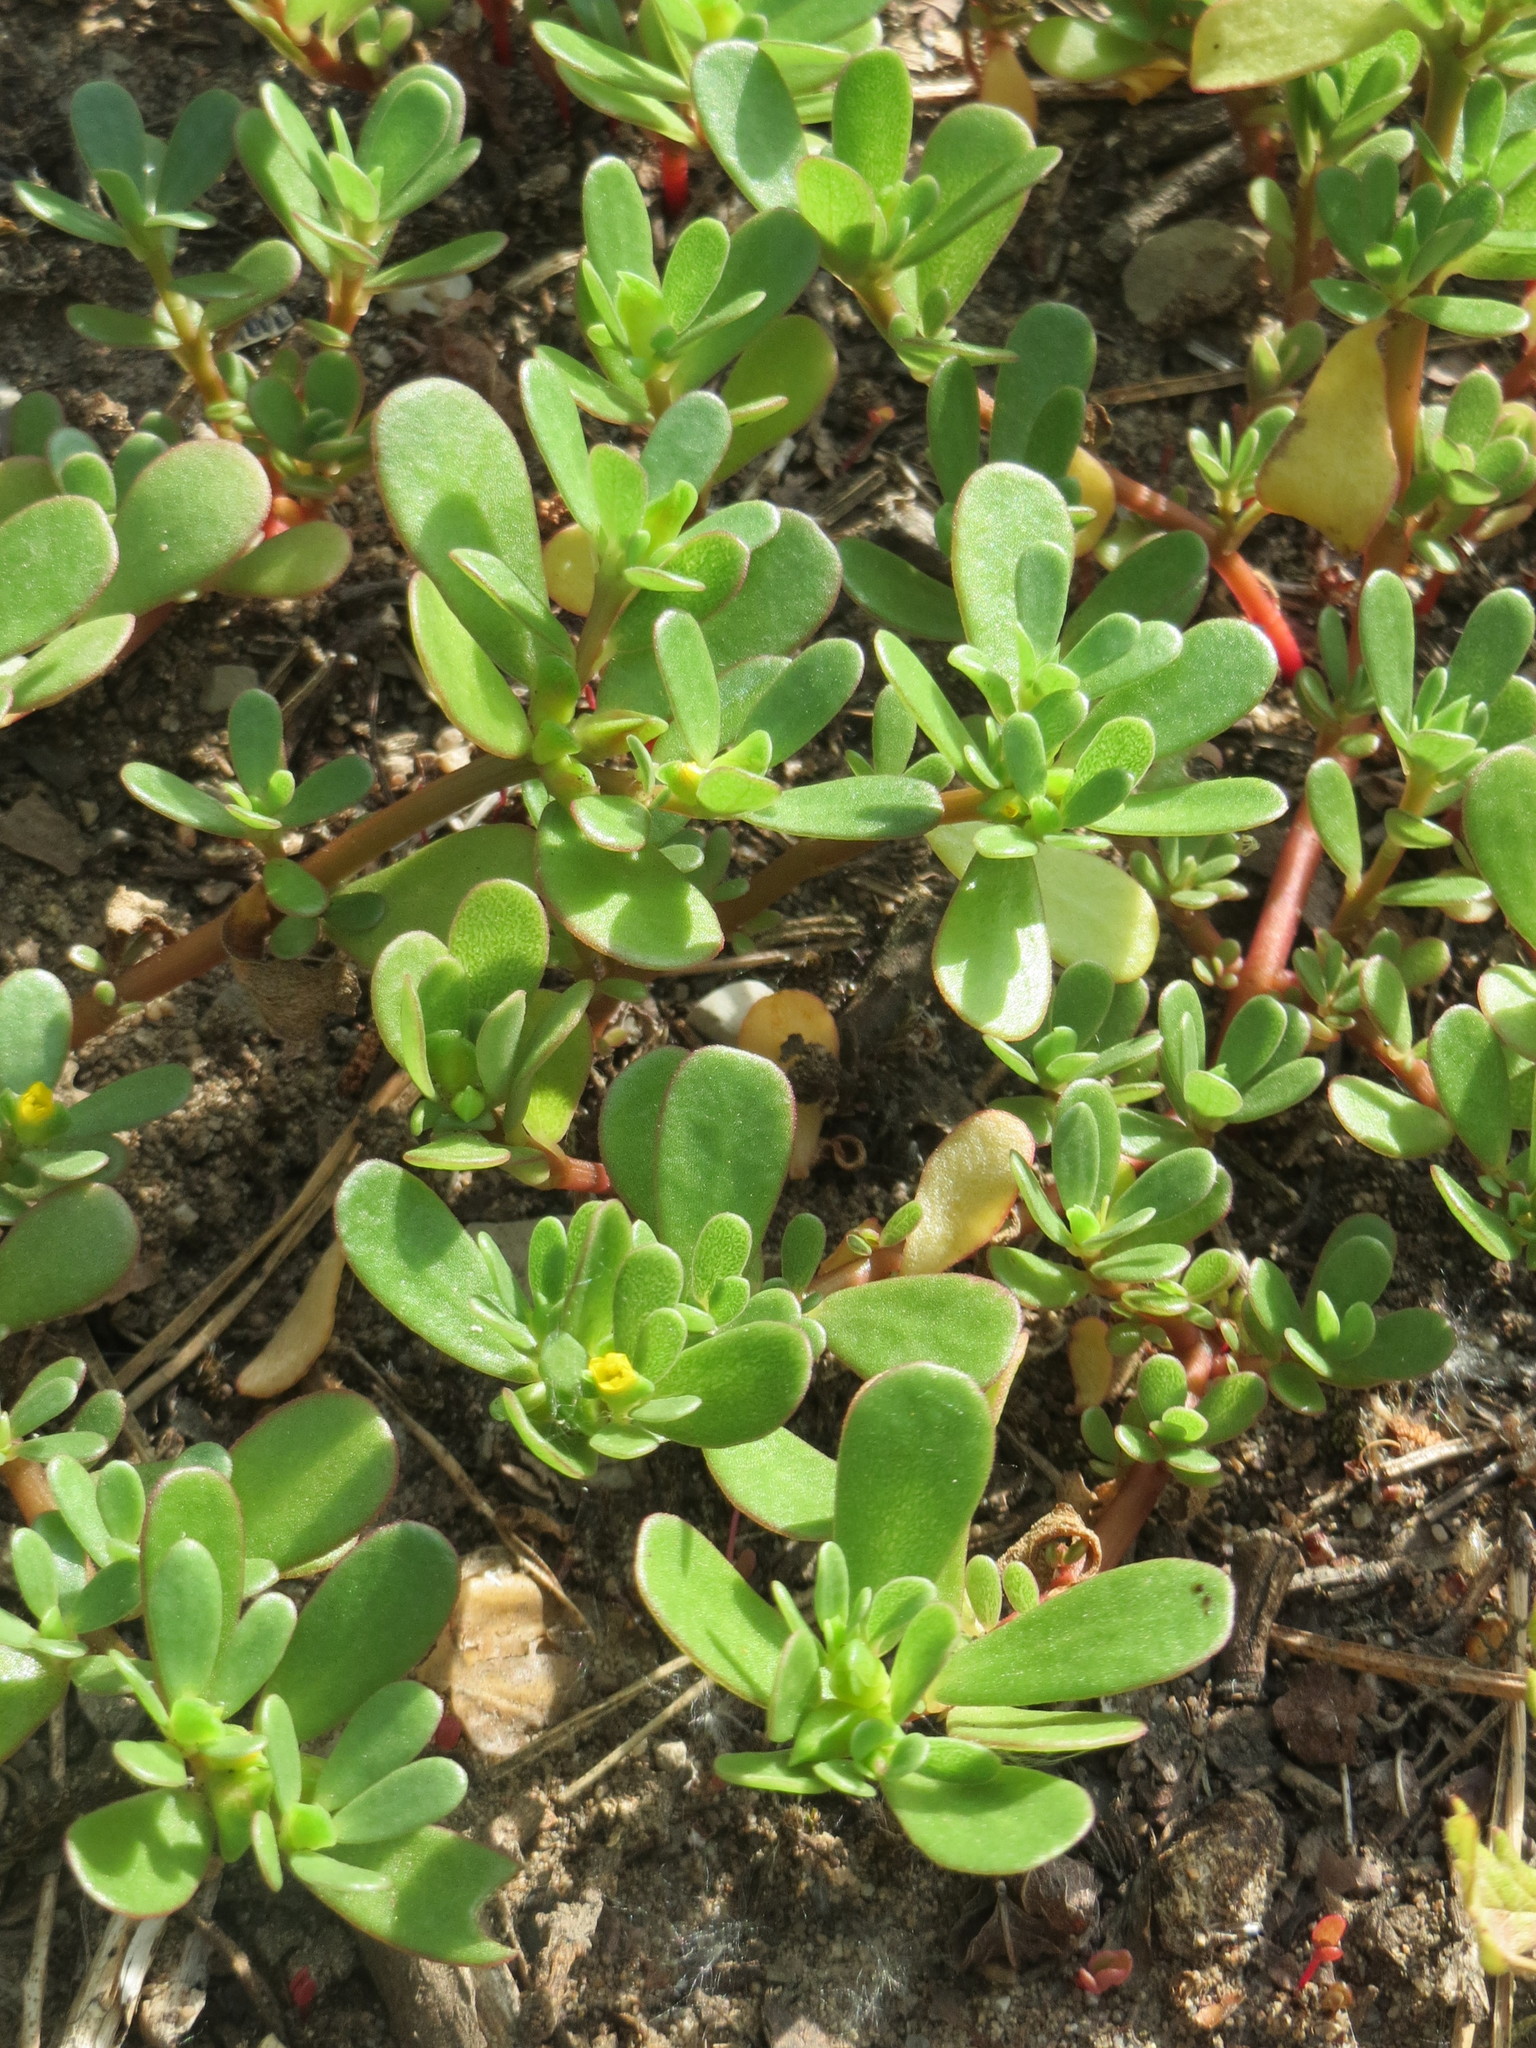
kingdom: Plantae
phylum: Tracheophyta
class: Magnoliopsida
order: Caryophyllales
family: Portulacaceae
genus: Portulaca
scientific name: Portulaca oleracea
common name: Common purslane
